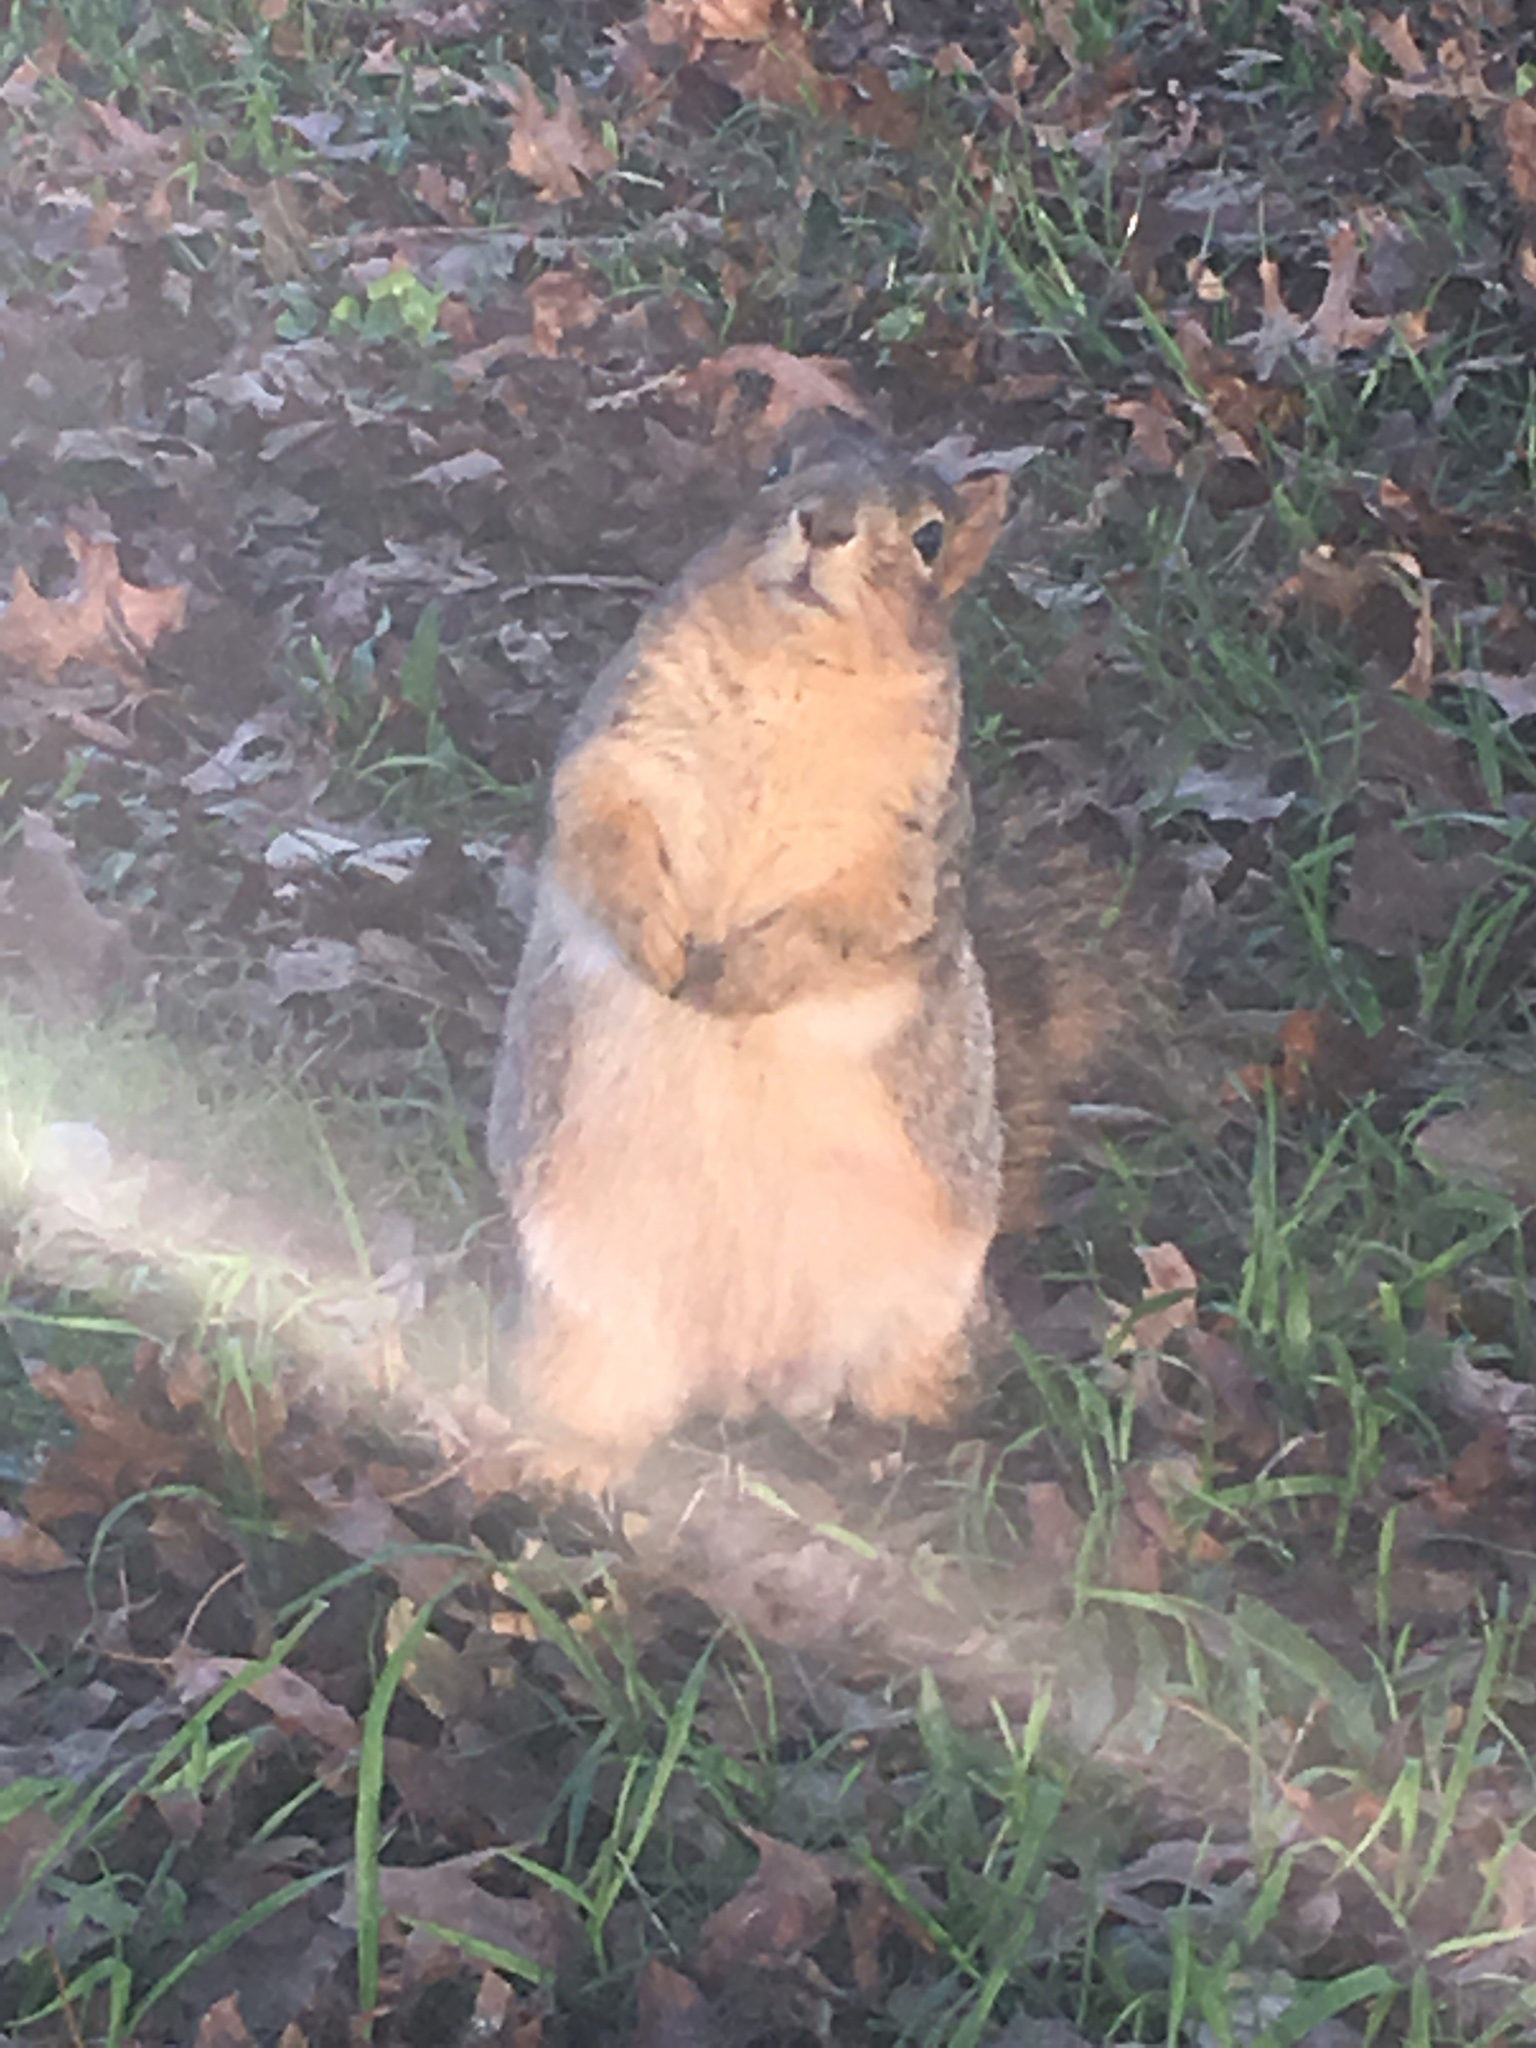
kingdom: Animalia
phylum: Chordata
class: Mammalia
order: Rodentia
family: Sciuridae
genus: Sciurus
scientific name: Sciurus niger
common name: Fox squirrel
